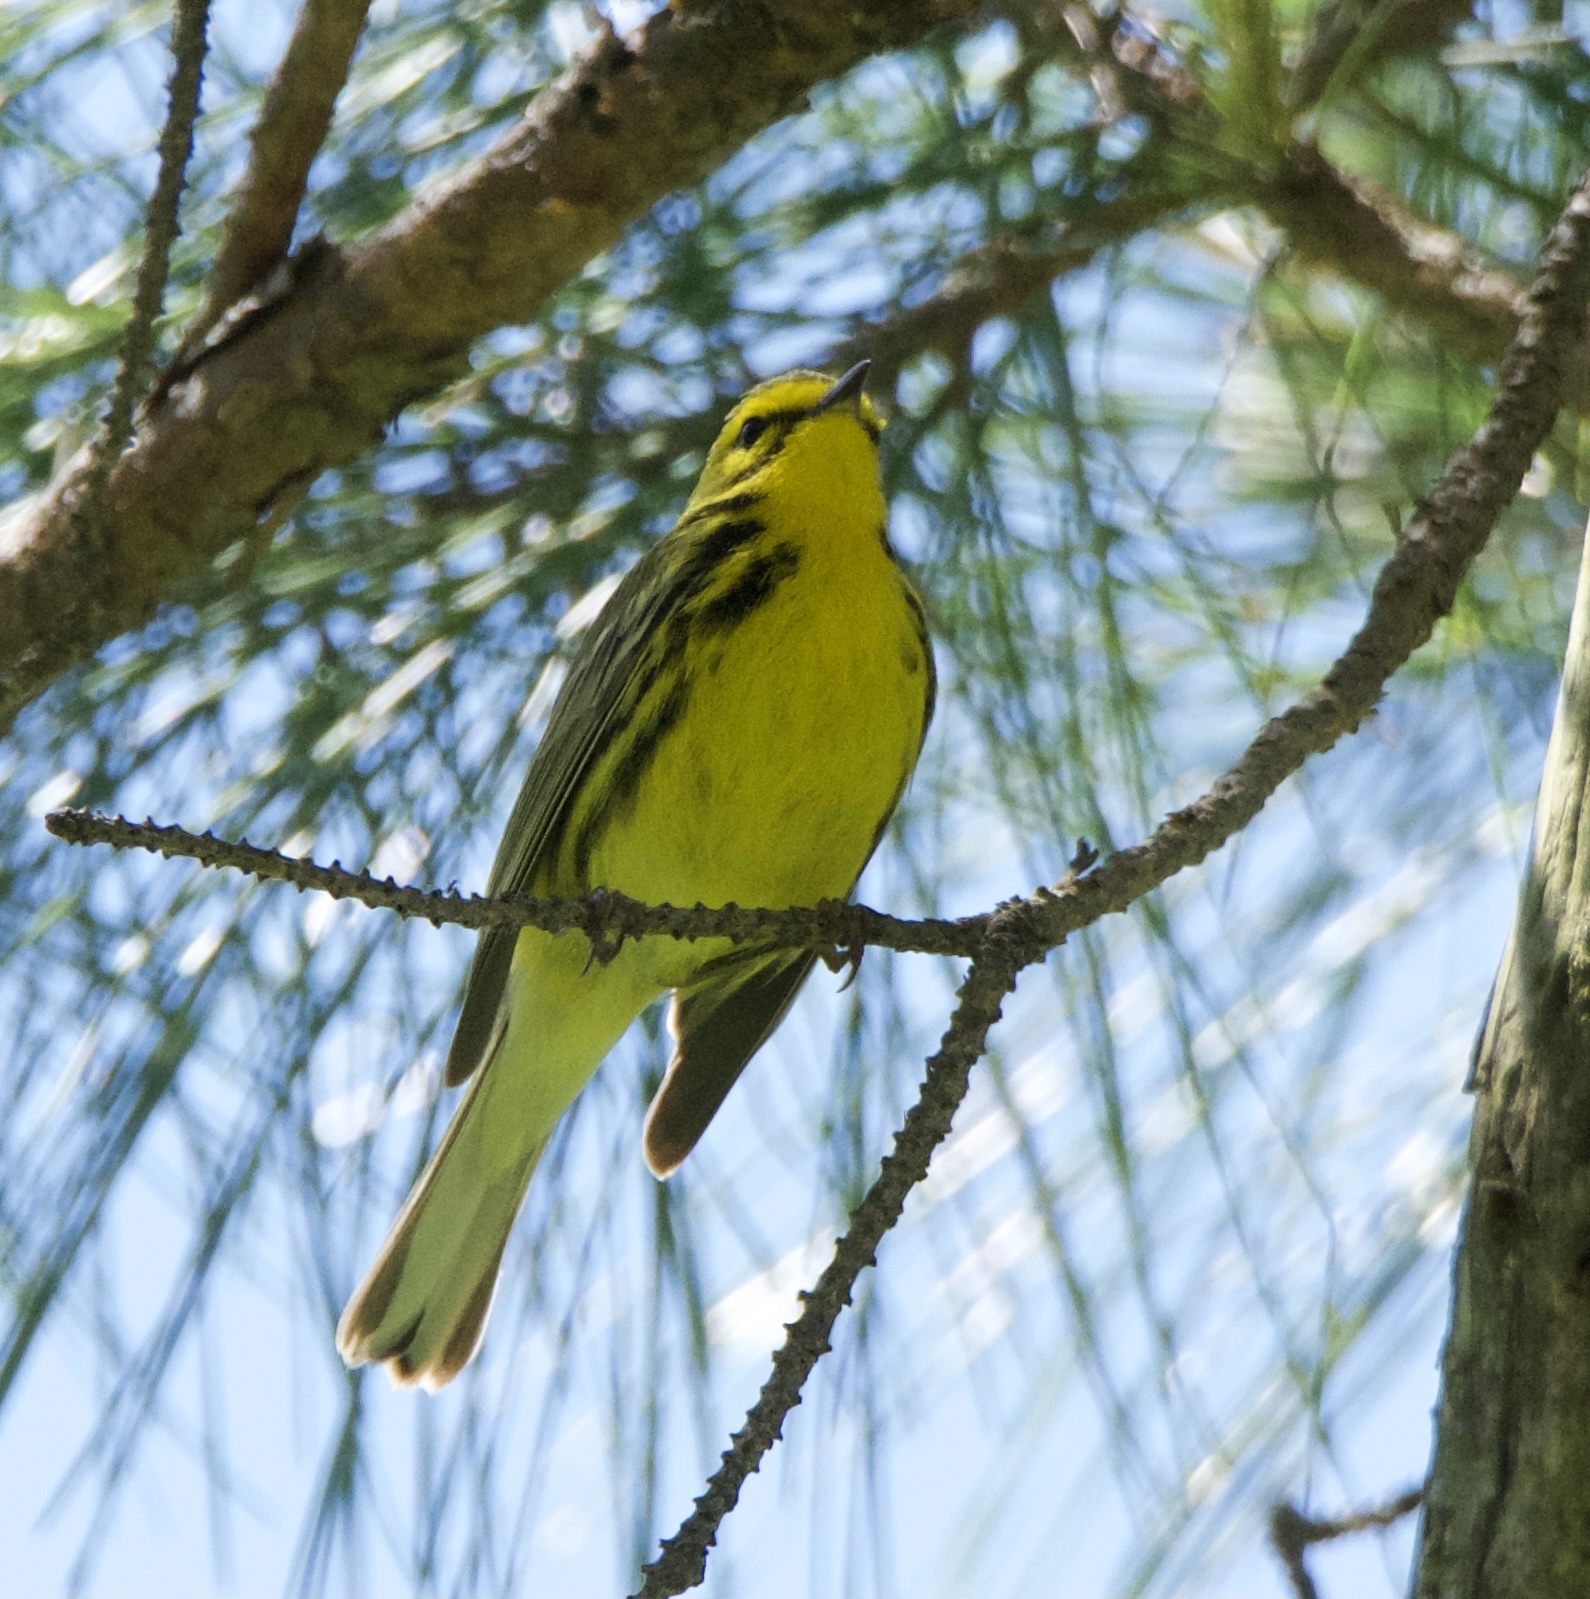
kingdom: Animalia
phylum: Chordata
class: Aves
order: Passeriformes
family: Parulidae
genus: Setophaga
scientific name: Setophaga discolor
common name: Prairie warbler
